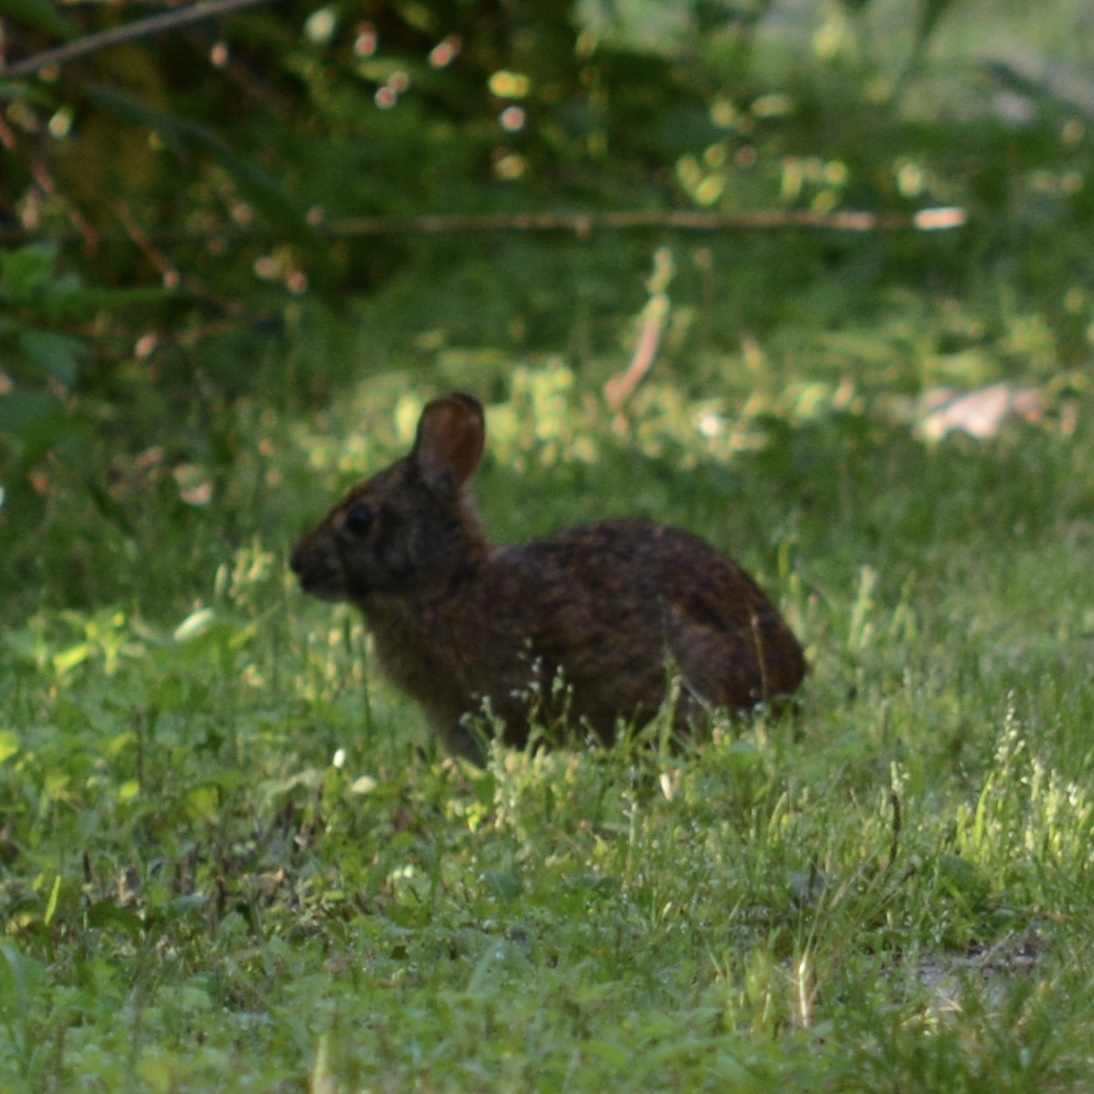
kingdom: Animalia
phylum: Chordata
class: Mammalia
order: Lagomorpha
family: Leporidae
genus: Sylvilagus
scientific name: Sylvilagus palustris
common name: Marsh rabbit
